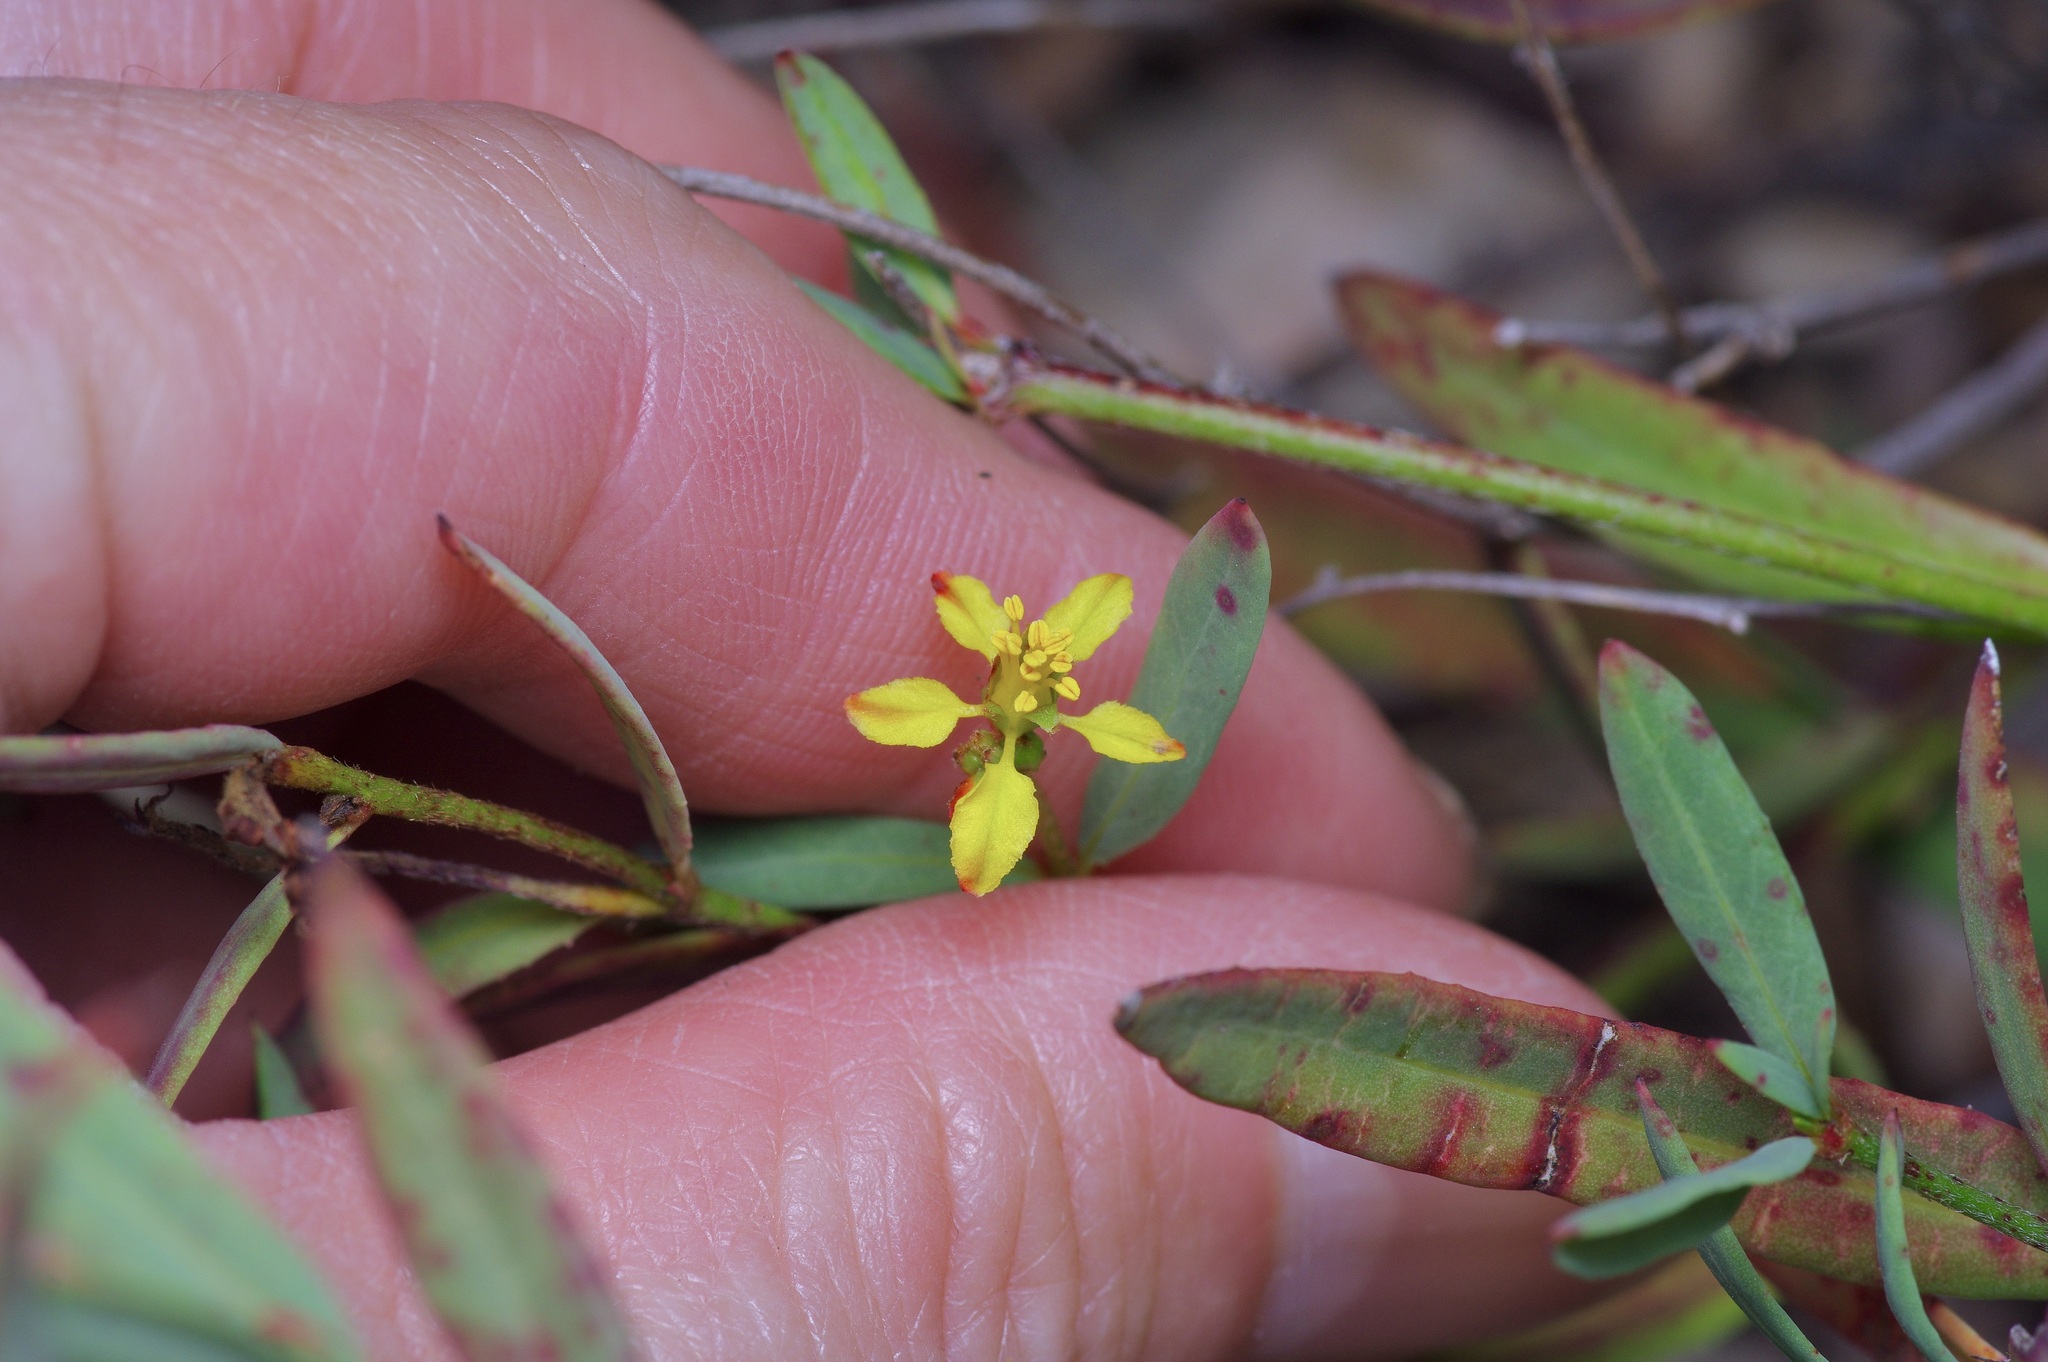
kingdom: Plantae
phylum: Tracheophyta
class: Magnoliopsida
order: Malpighiales
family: Malpighiaceae
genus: Galphimia
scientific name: Galphimia angustifolia
